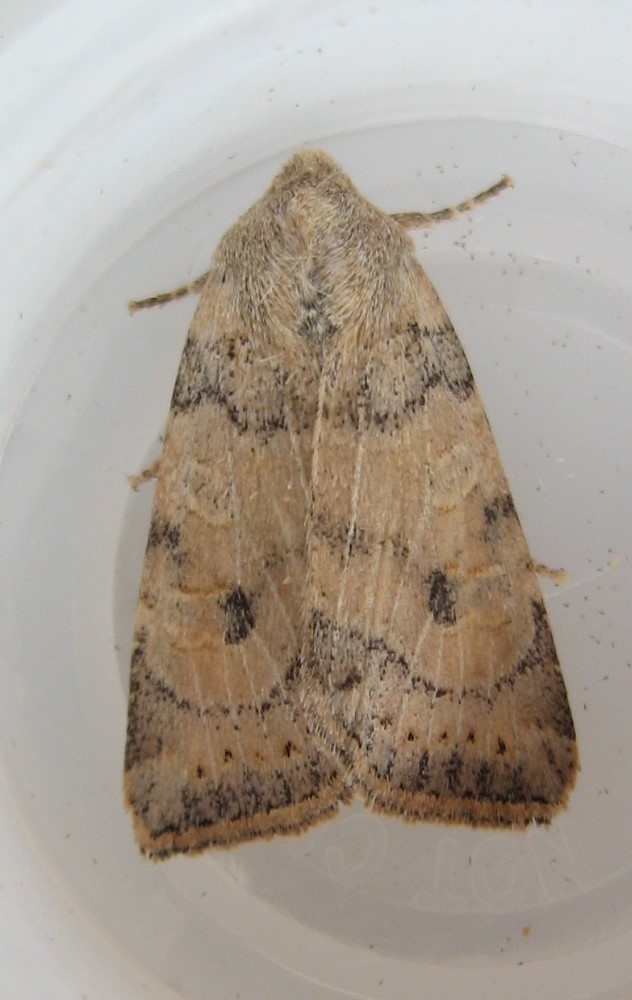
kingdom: Animalia
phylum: Arthropoda
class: Insecta
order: Lepidoptera
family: Noctuidae
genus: Anathix
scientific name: Anathix aggressa
